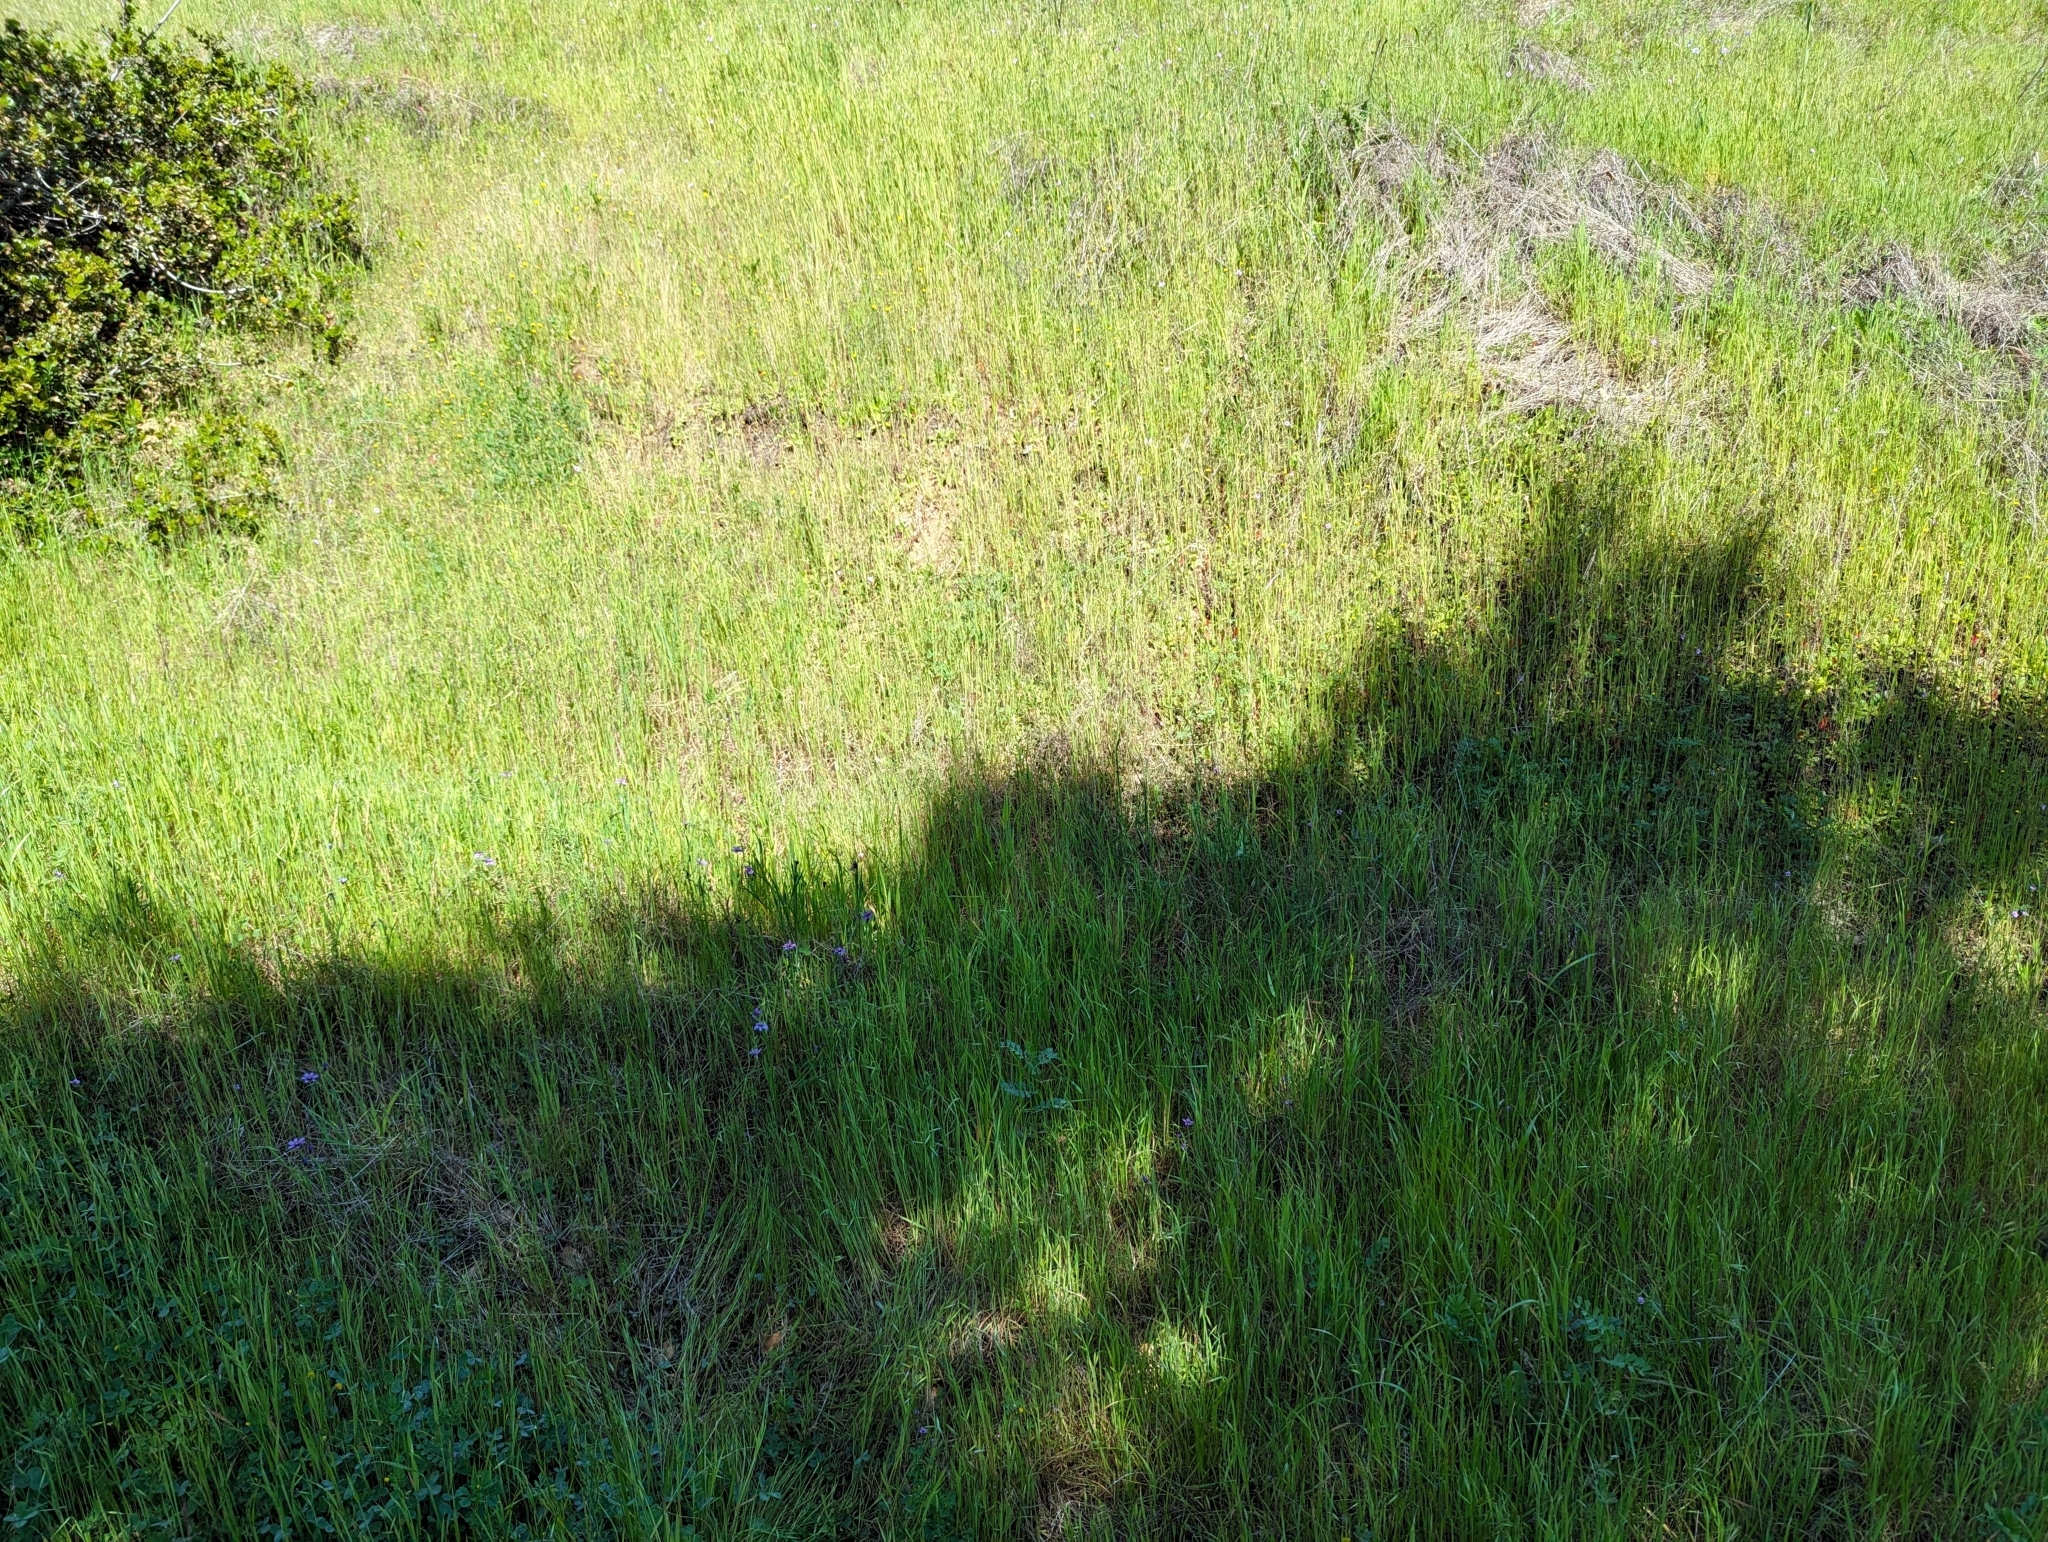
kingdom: Plantae
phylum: Tracheophyta
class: Liliopsida
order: Asparagales
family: Iridaceae
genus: Sisyrinchium
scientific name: Sisyrinchium bellum
